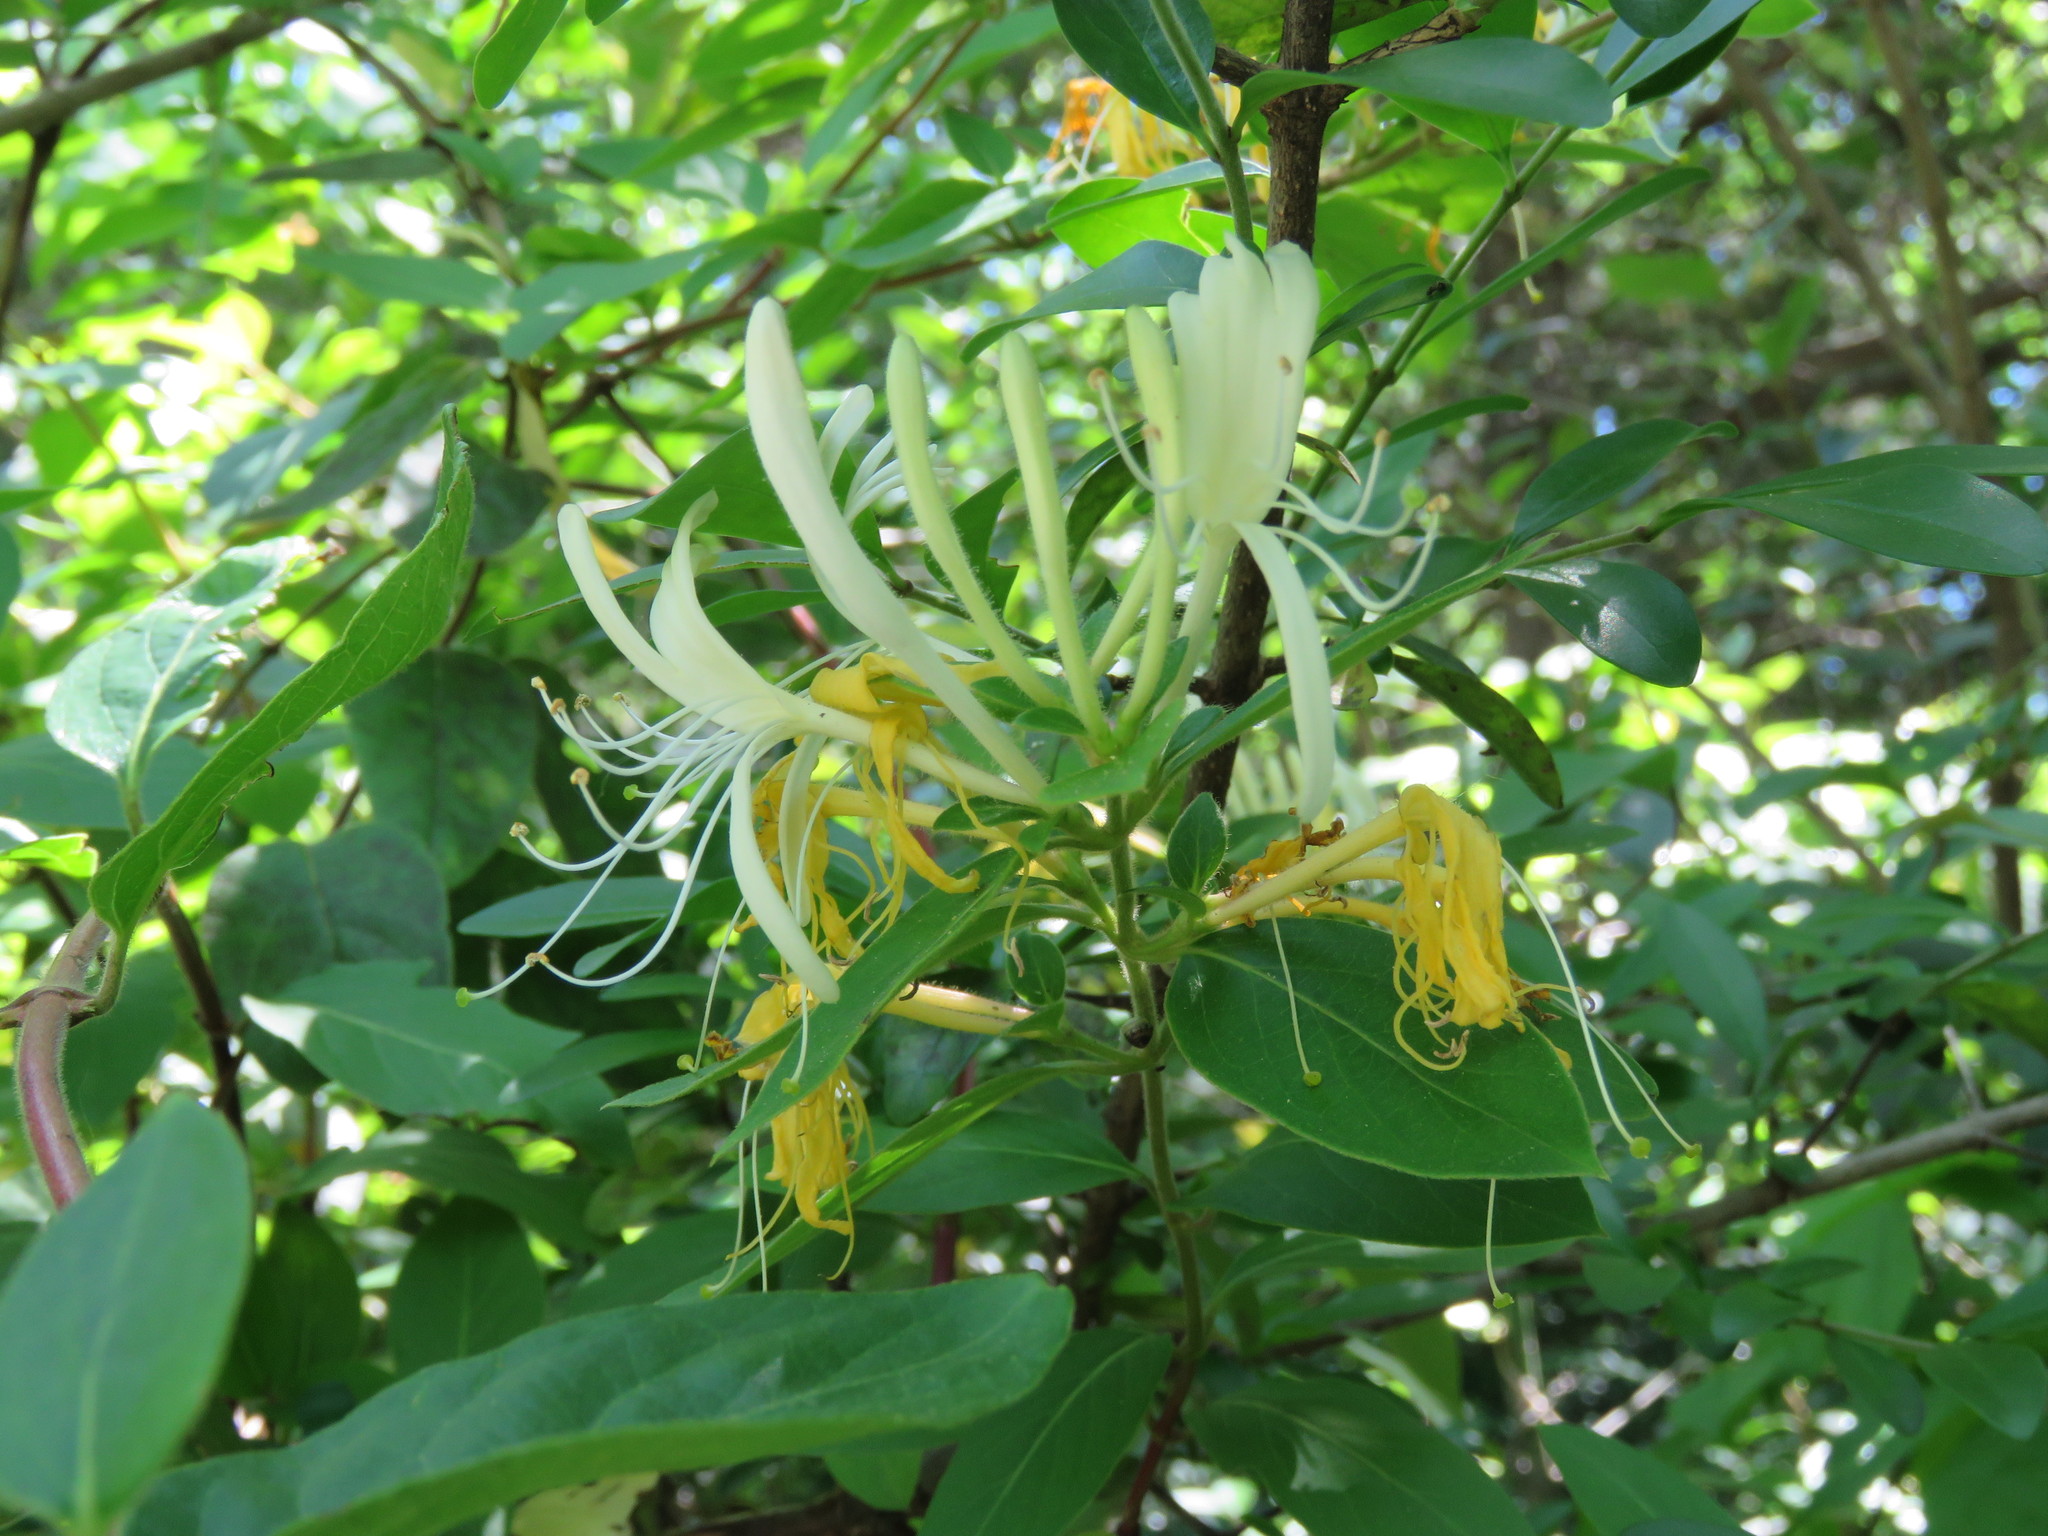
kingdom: Plantae
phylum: Tracheophyta
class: Magnoliopsida
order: Dipsacales
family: Caprifoliaceae
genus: Lonicera
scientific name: Lonicera japonica
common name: Japanese honeysuckle
